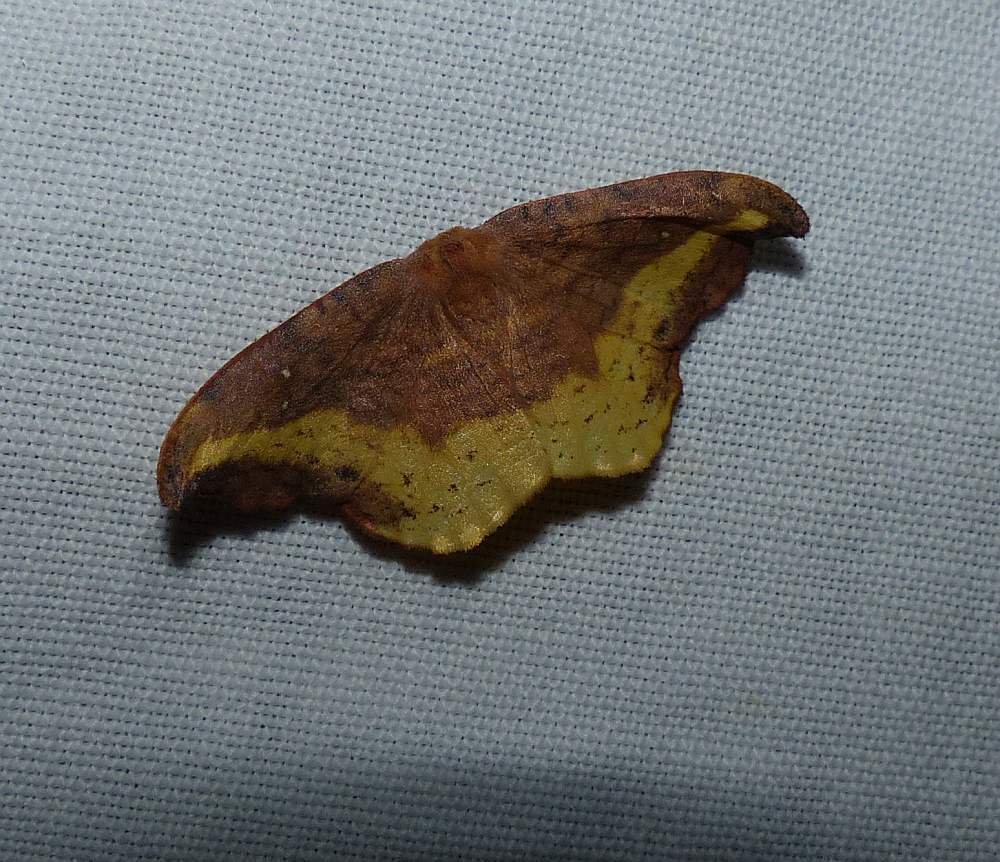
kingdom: Animalia
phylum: Arthropoda
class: Insecta
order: Lepidoptera
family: Drepanidae
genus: Oreta
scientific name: Oreta rosea
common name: Rose hooktip
